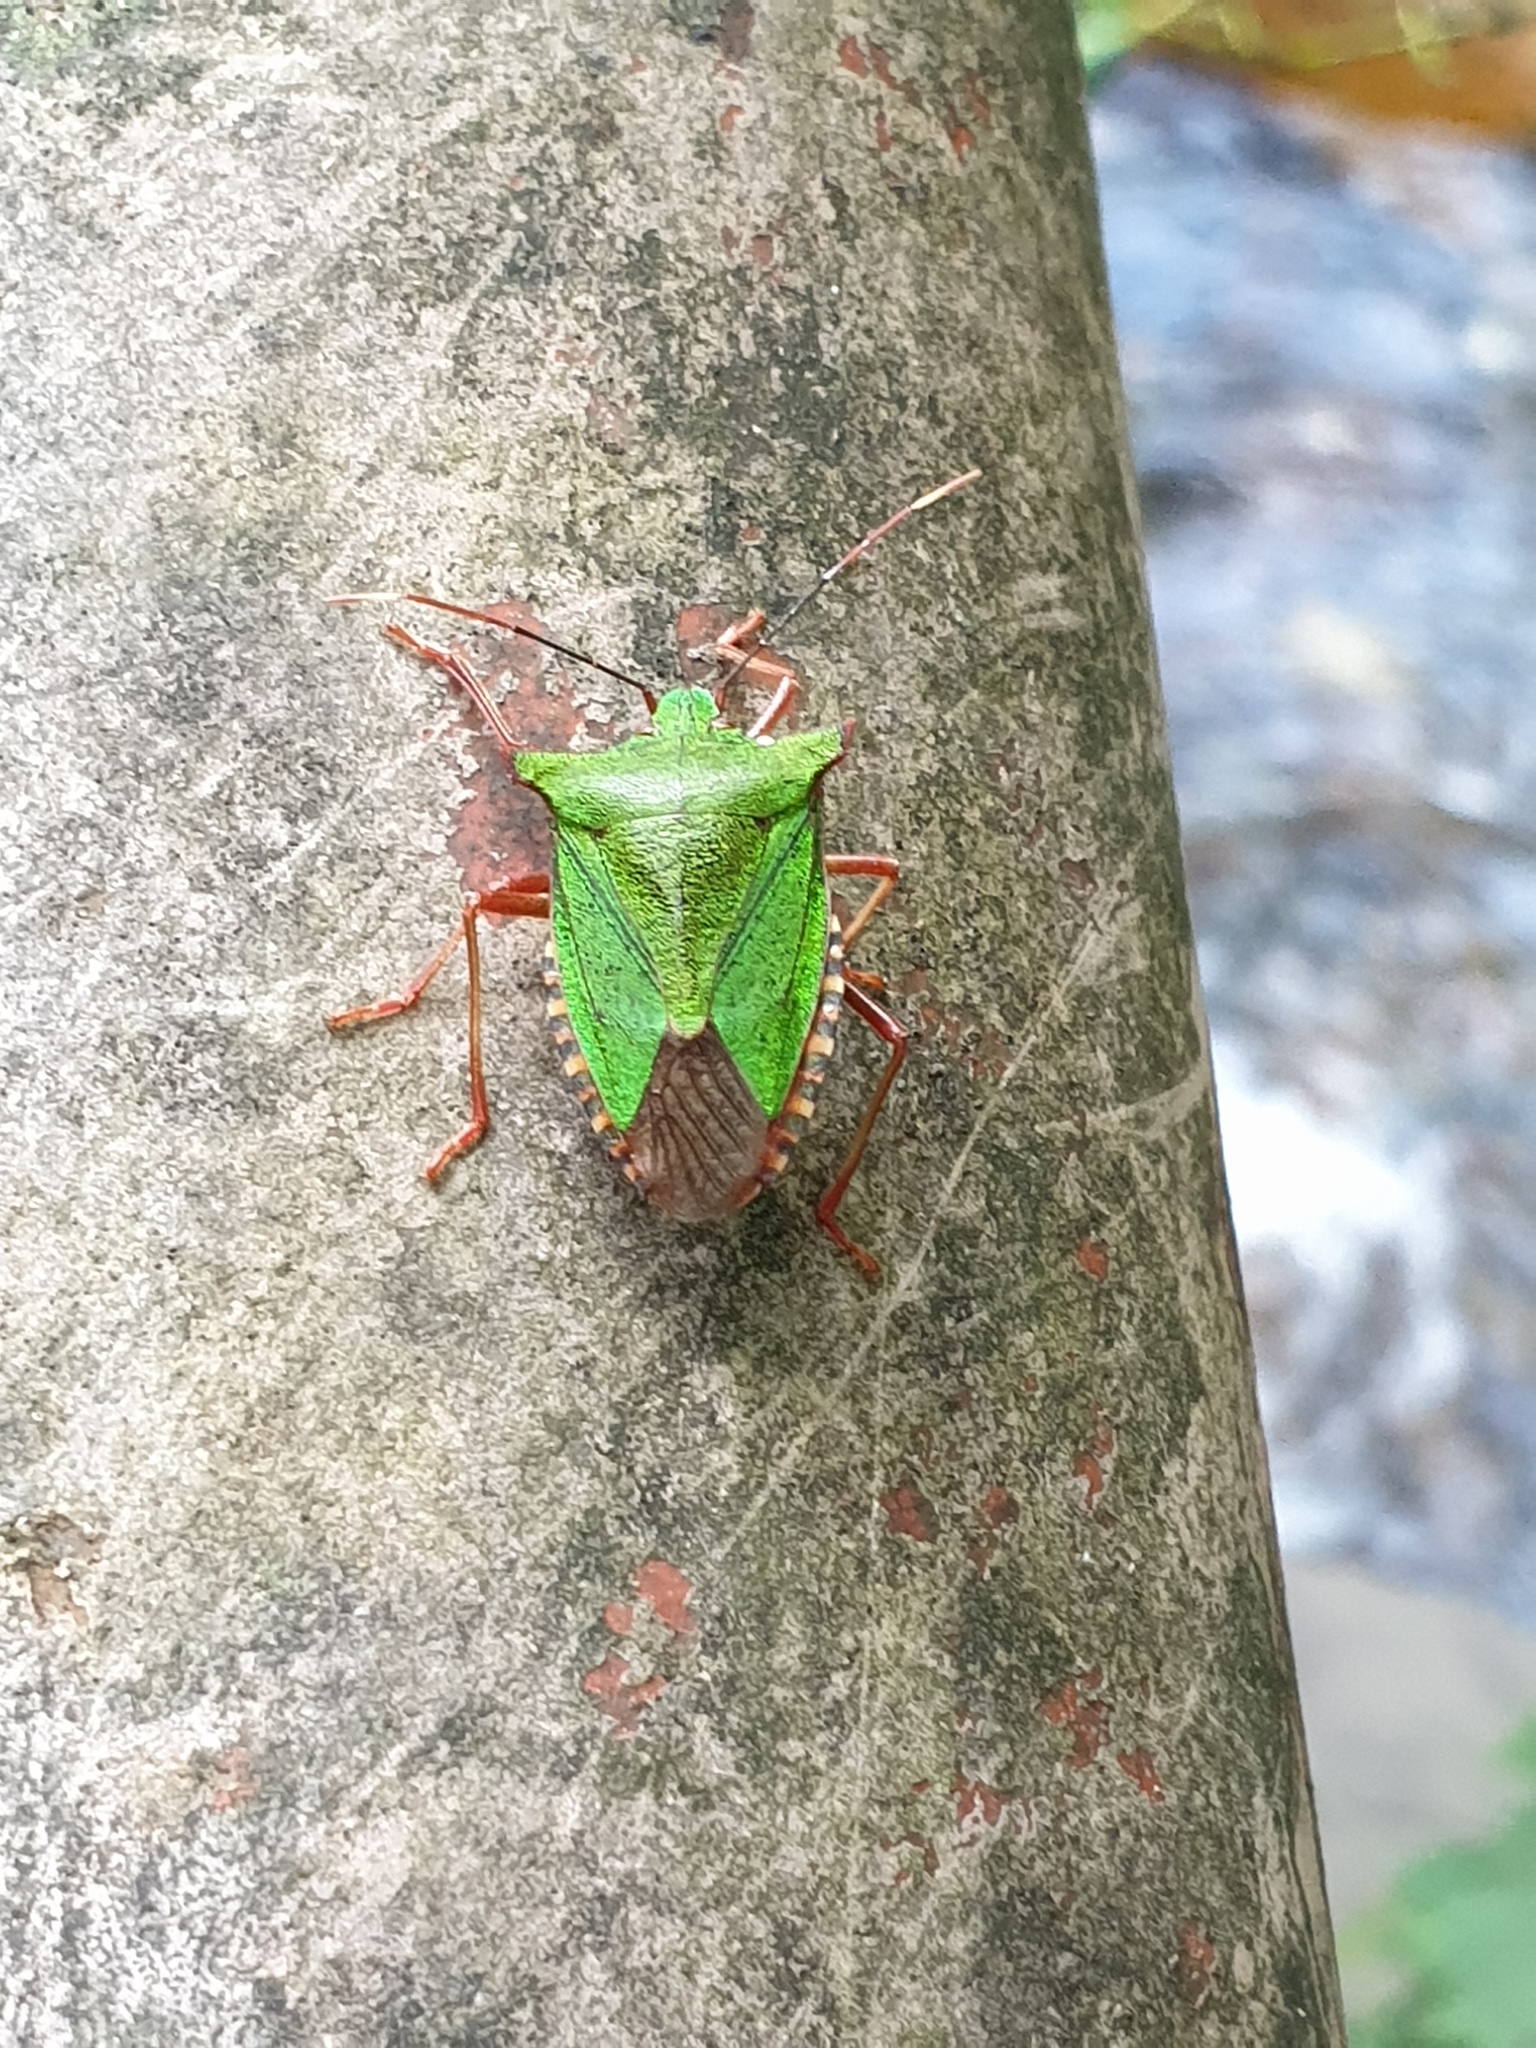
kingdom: Animalia
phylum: Arthropoda
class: Insecta
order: Hemiptera
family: Pentatomidae
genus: Pentatoma
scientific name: Pentatoma japonica
